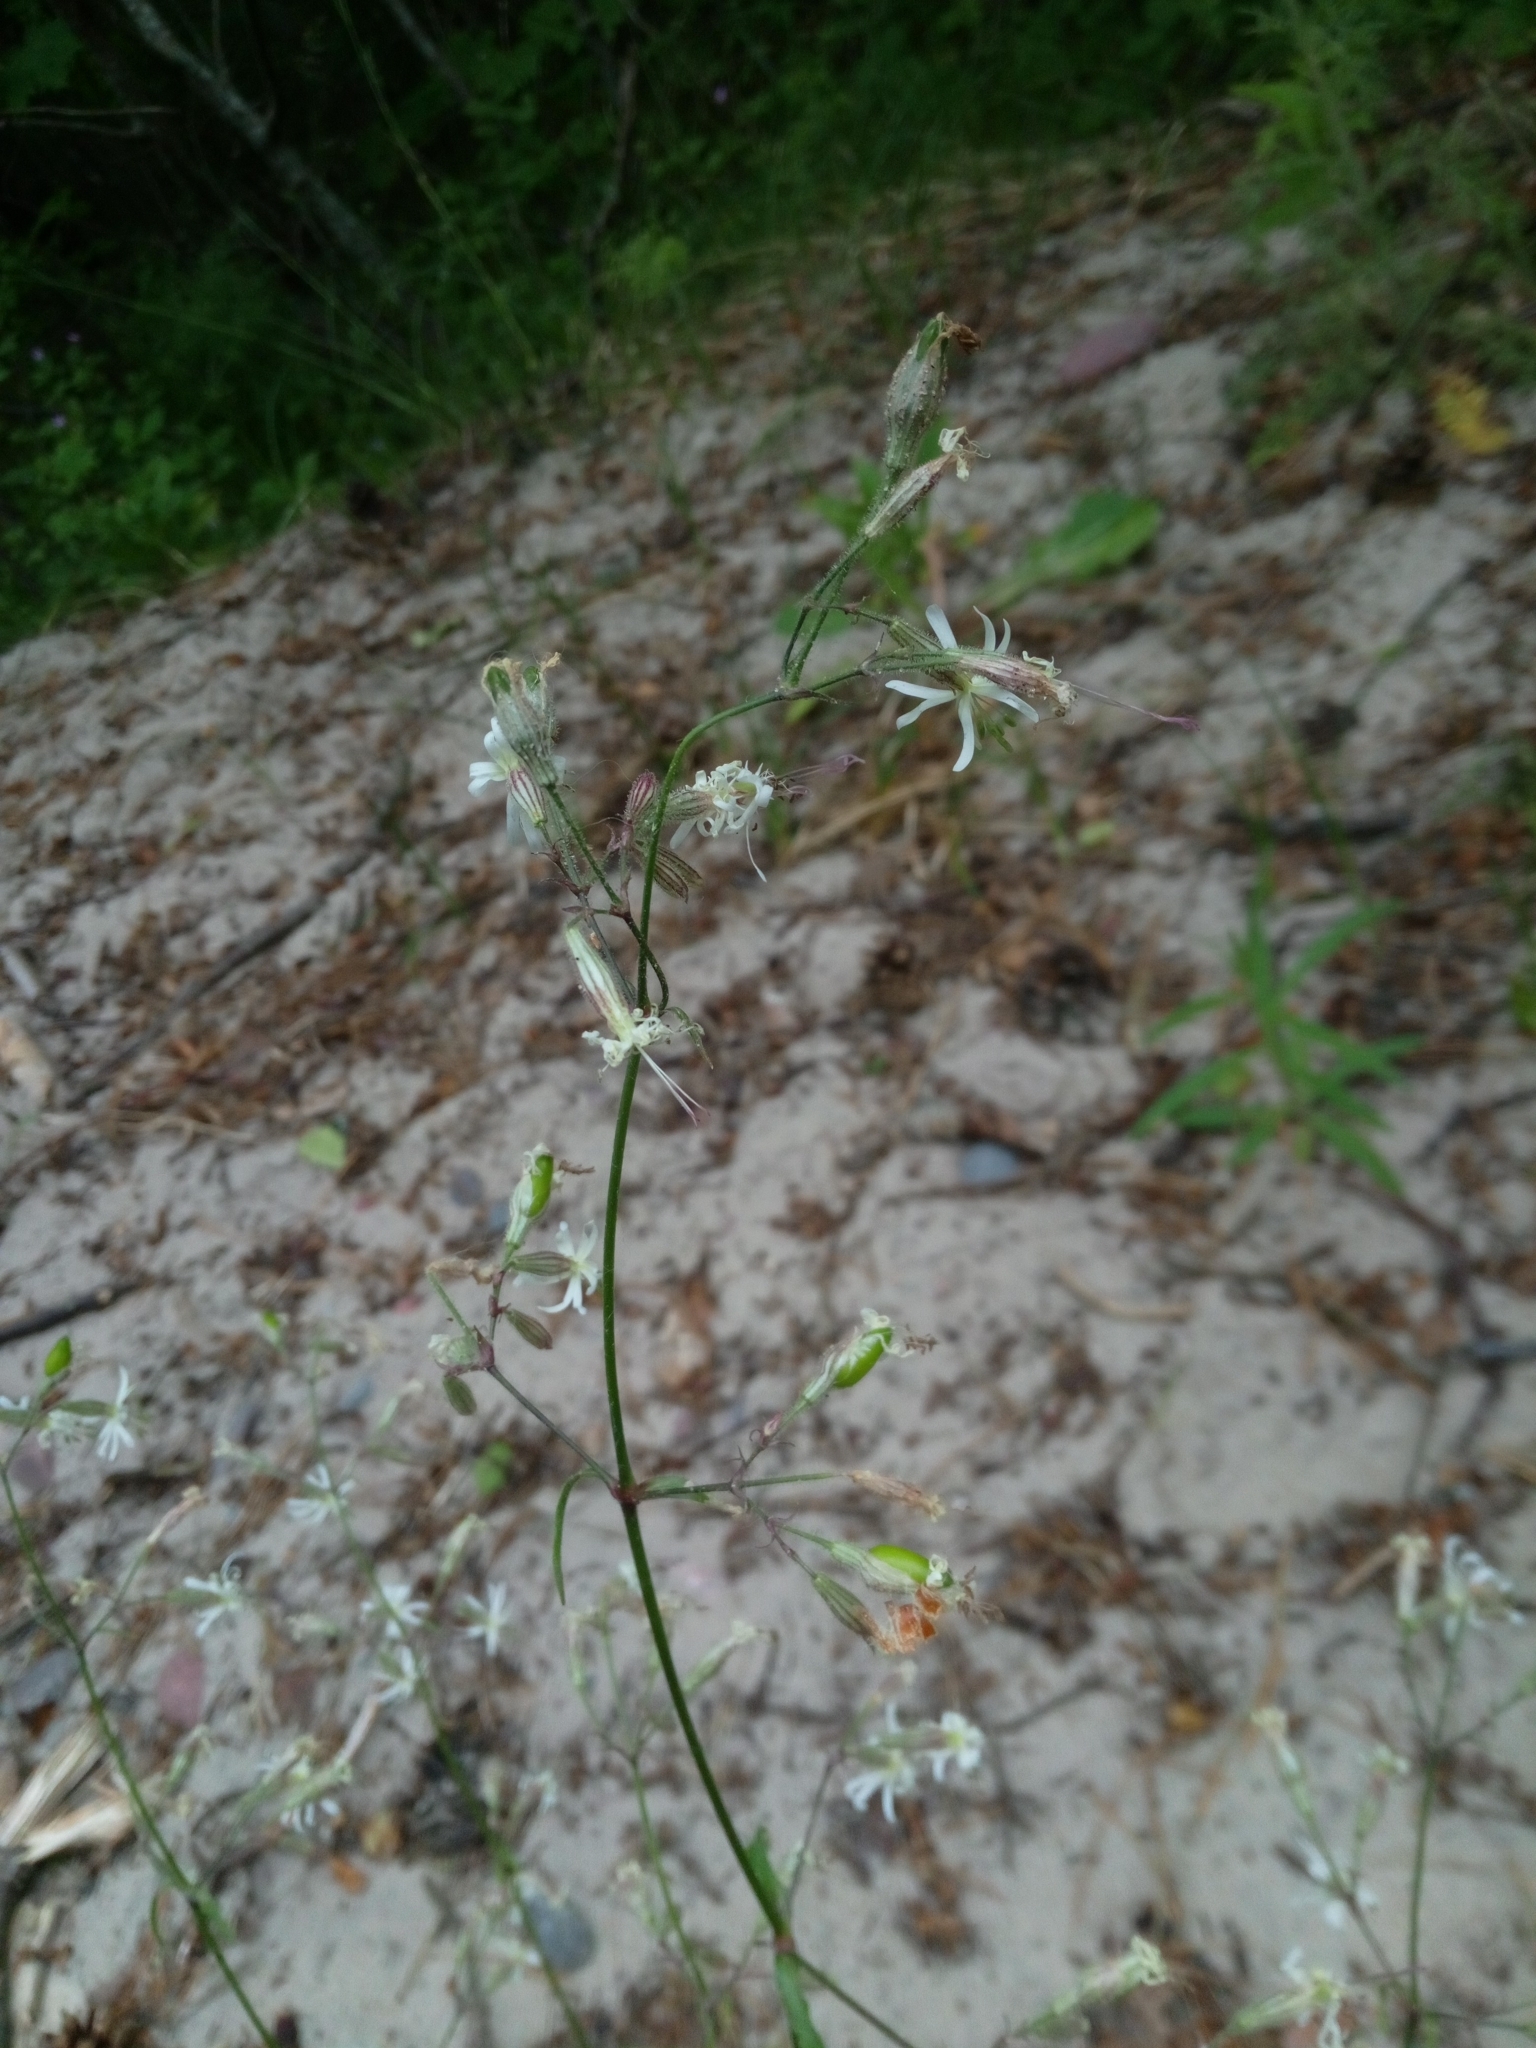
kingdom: Plantae
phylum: Tracheophyta
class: Magnoliopsida
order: Caryophyllales
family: Caryophyllaceae
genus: Silene
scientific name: Silene nutans
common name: Nottingham catchfly
